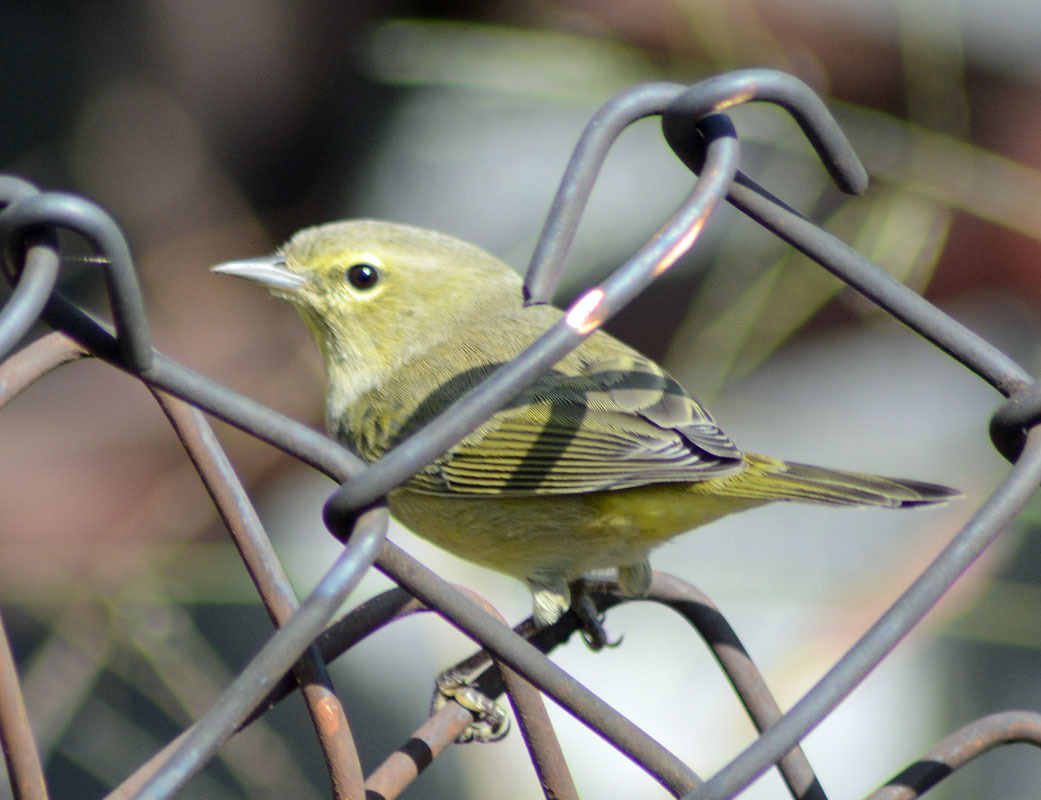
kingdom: Animalia
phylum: Chordata
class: Aves
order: Passeriformes
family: Parulidae
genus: Leiothlypis
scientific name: Leiothlypis celata
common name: Orange-crowned warbler
